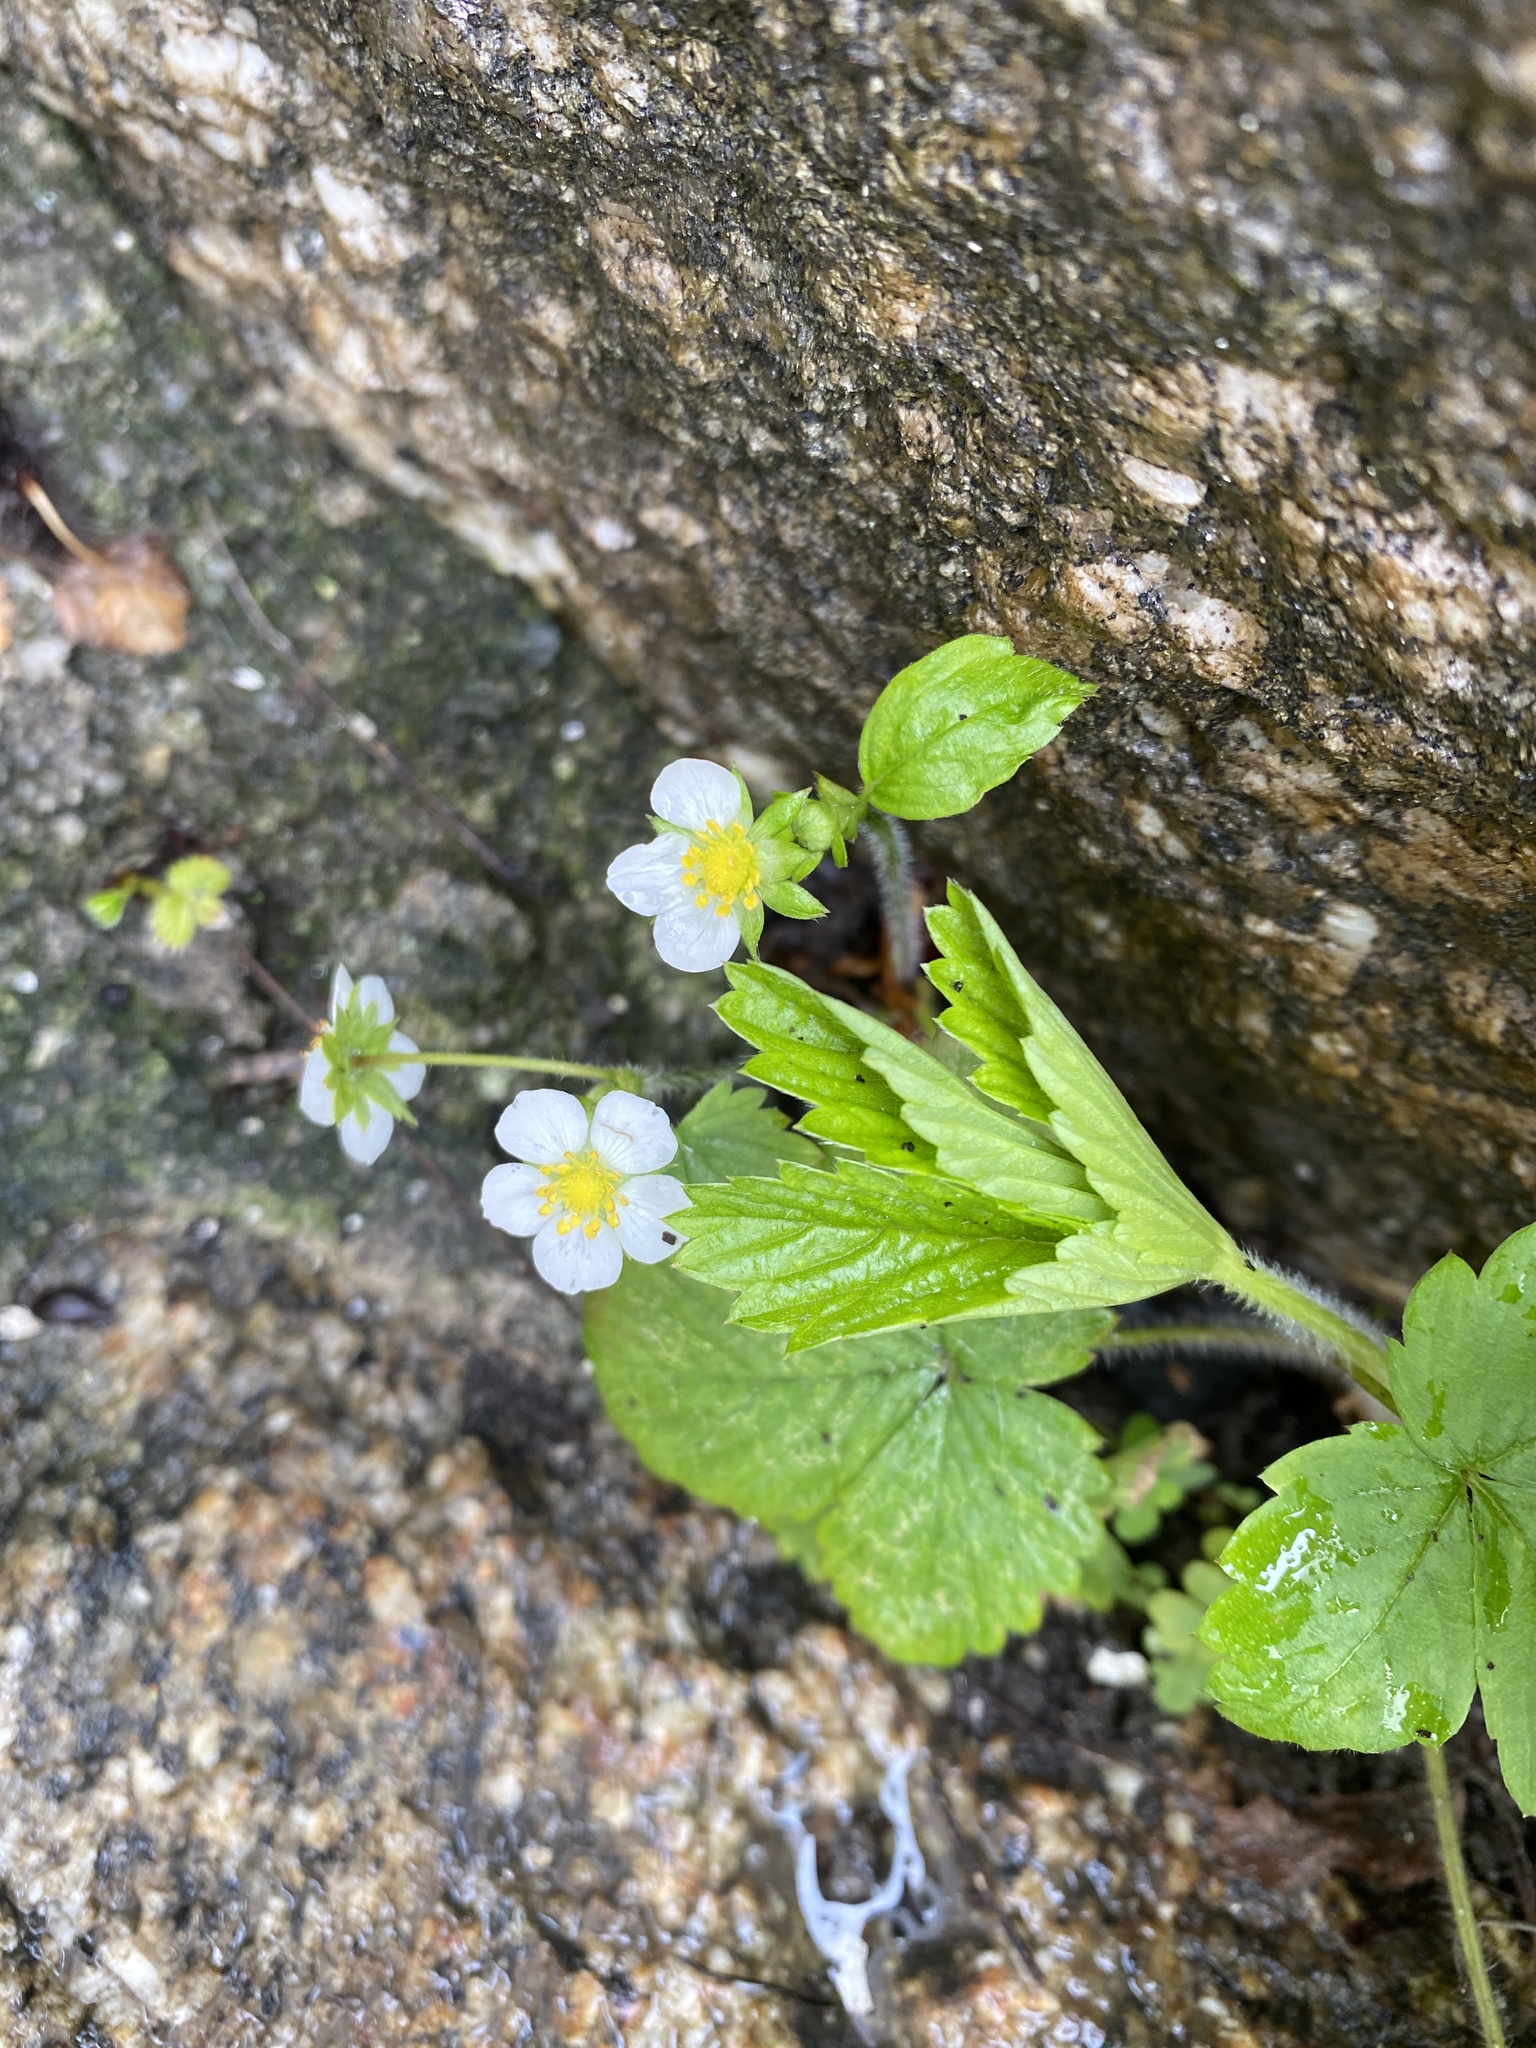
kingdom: Plantae
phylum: Tracheophyta
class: Magnoliopsida
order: Rosales
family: Rosaceae
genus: Fragaria
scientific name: Fragaria vesca
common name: Wild strawberry
